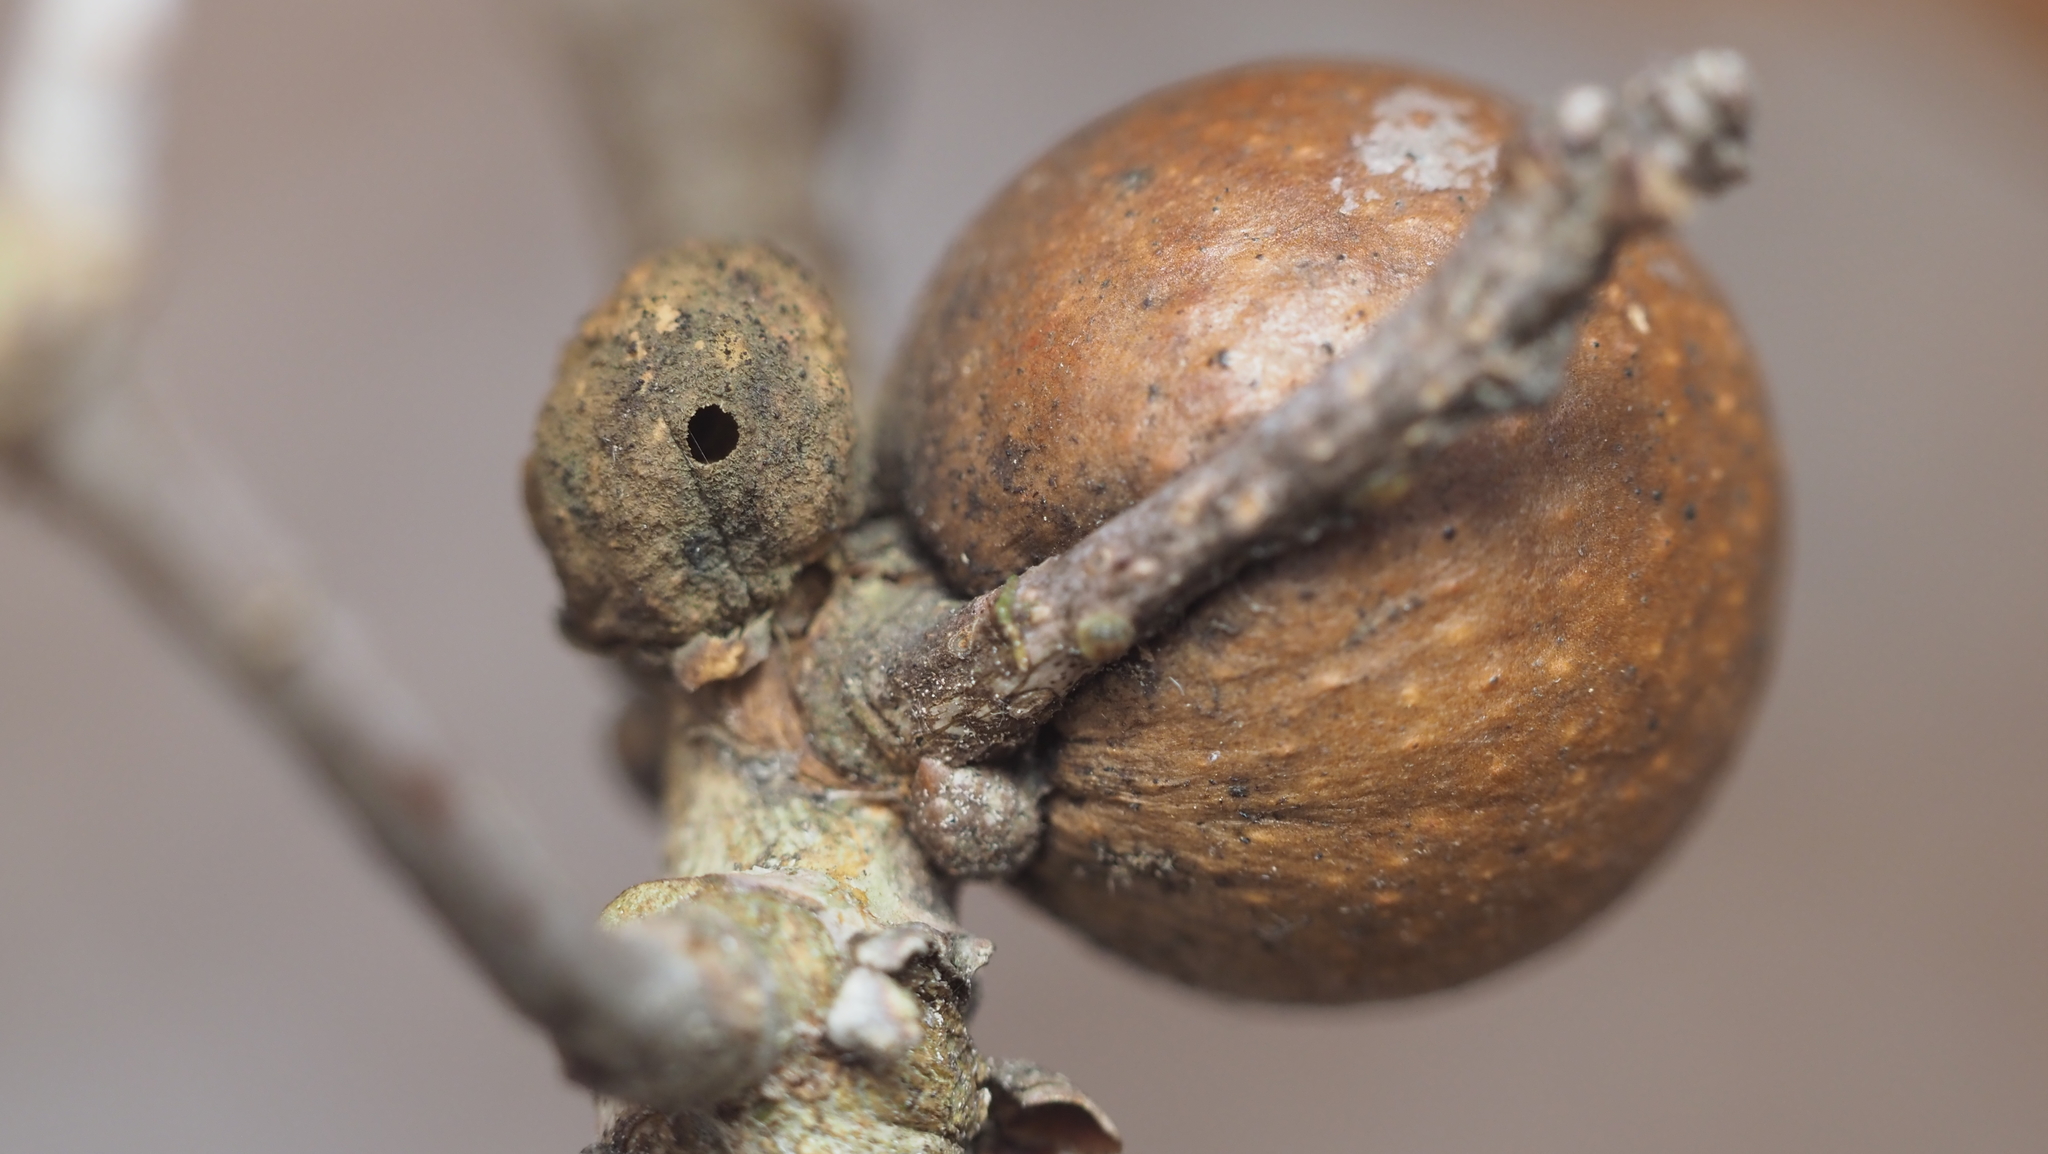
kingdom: Animalia
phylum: Arthropoda
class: Insecta
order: Hymenoptera
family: Cynipidae
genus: Disholcaspis
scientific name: Disholcaspis quercusglobulus
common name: Round bullet gall wasp
